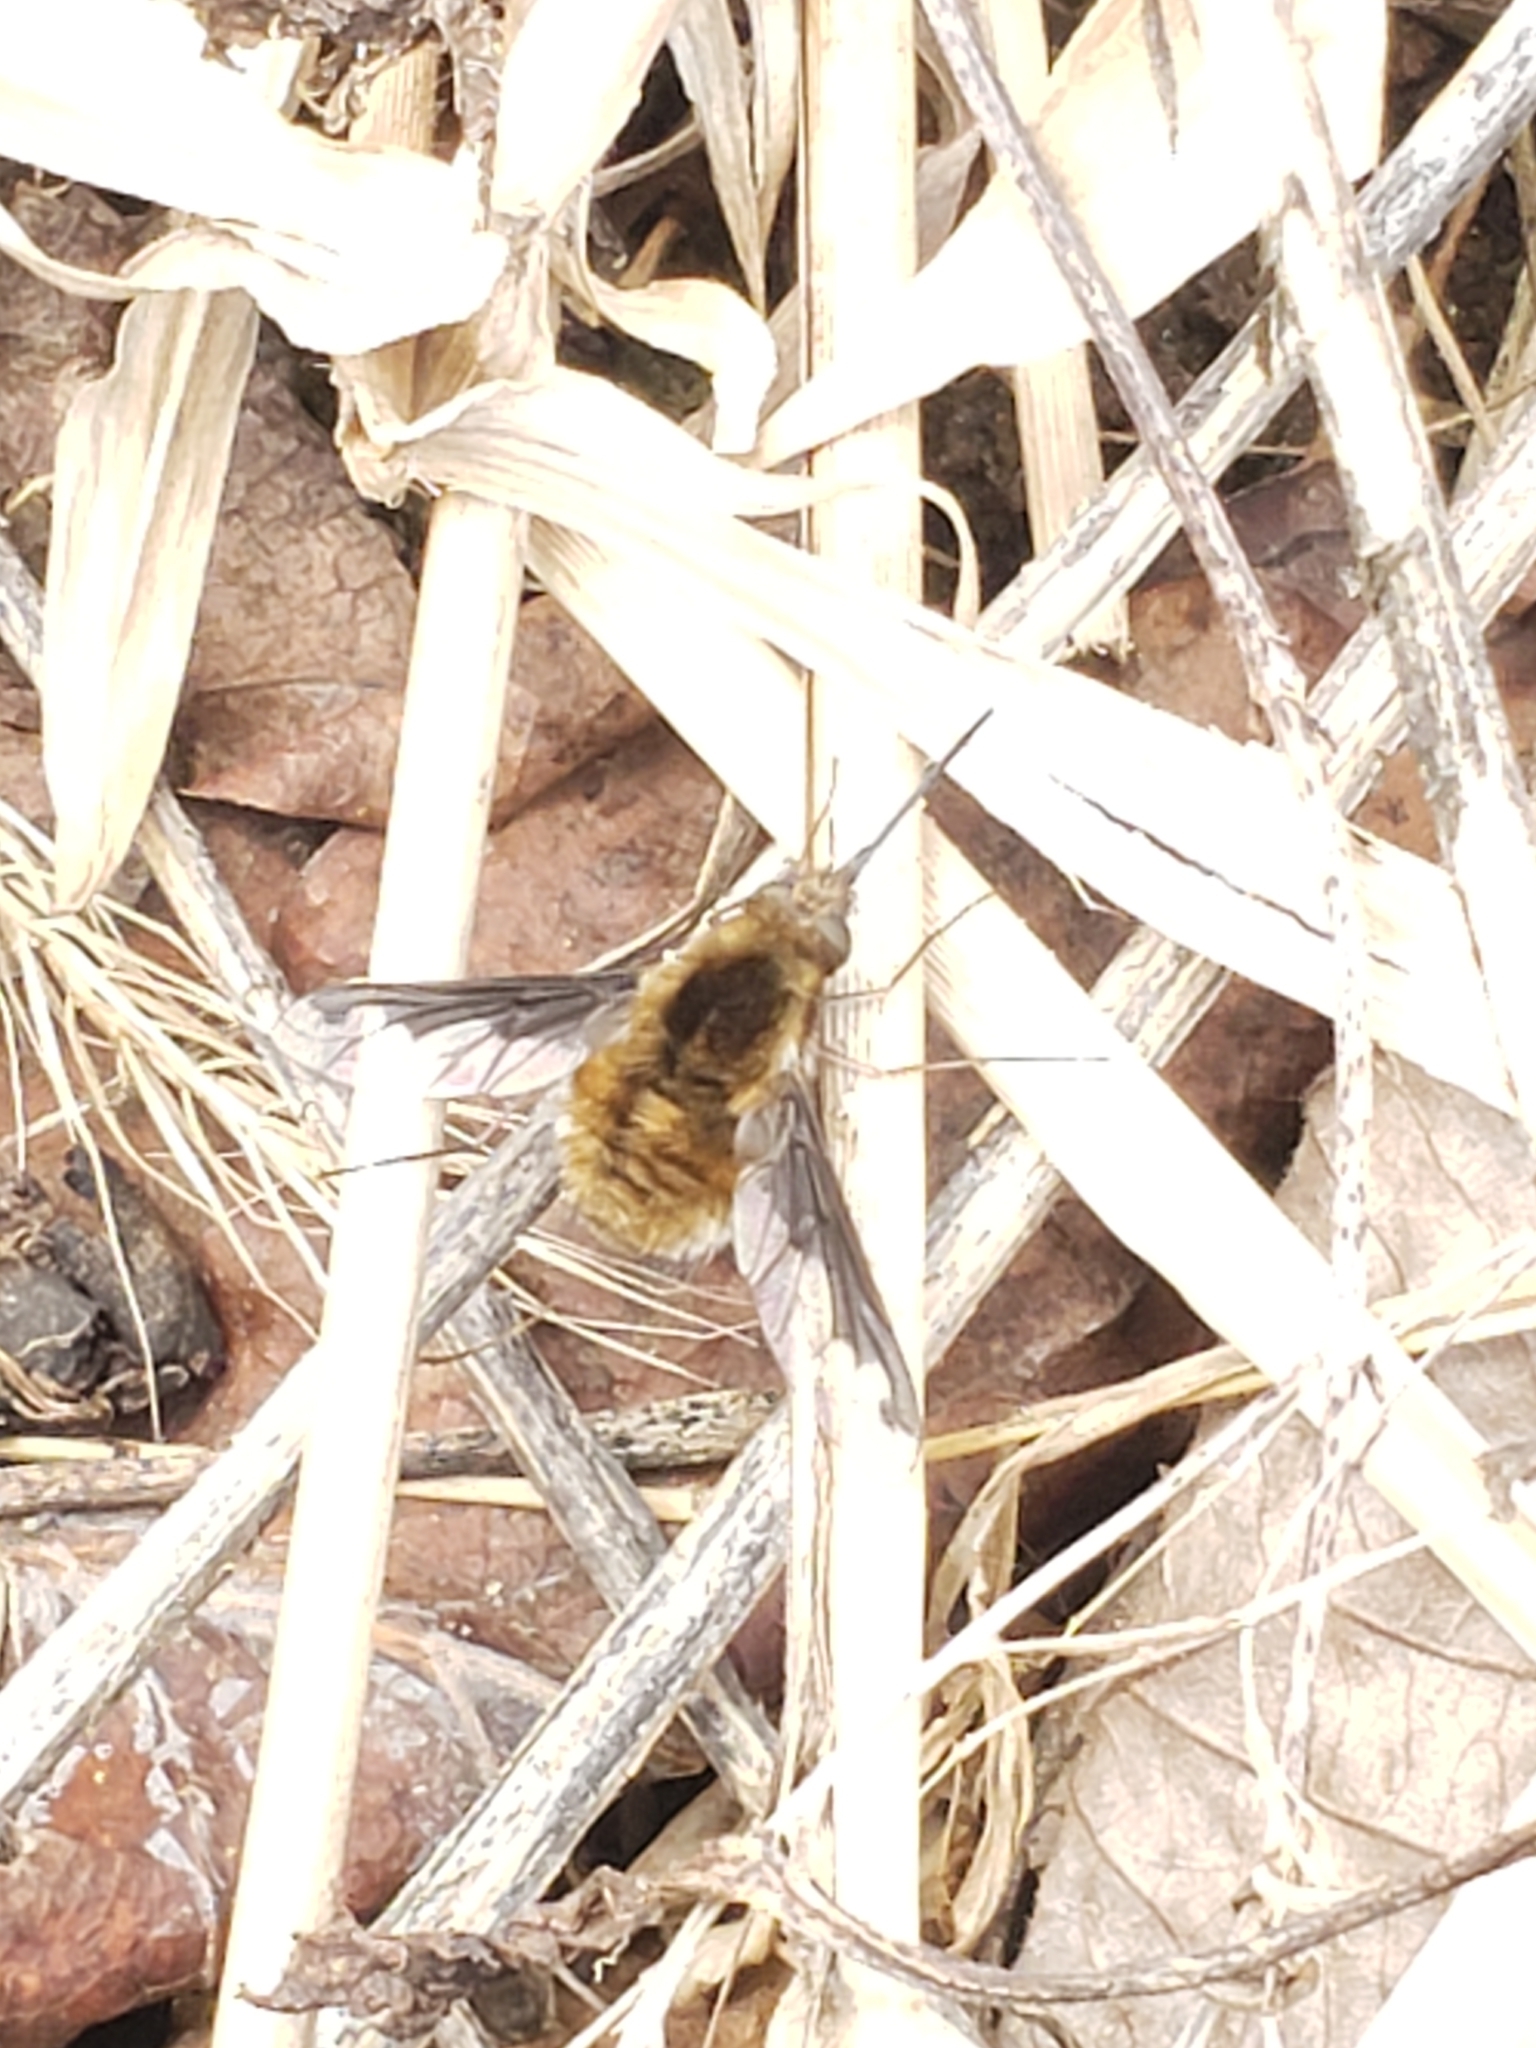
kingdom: Animalia
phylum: Arthropoda
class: Insecta
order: Diptera
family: Bombyliidae
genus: Bombylius
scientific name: Bombylius major
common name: Bee fly
